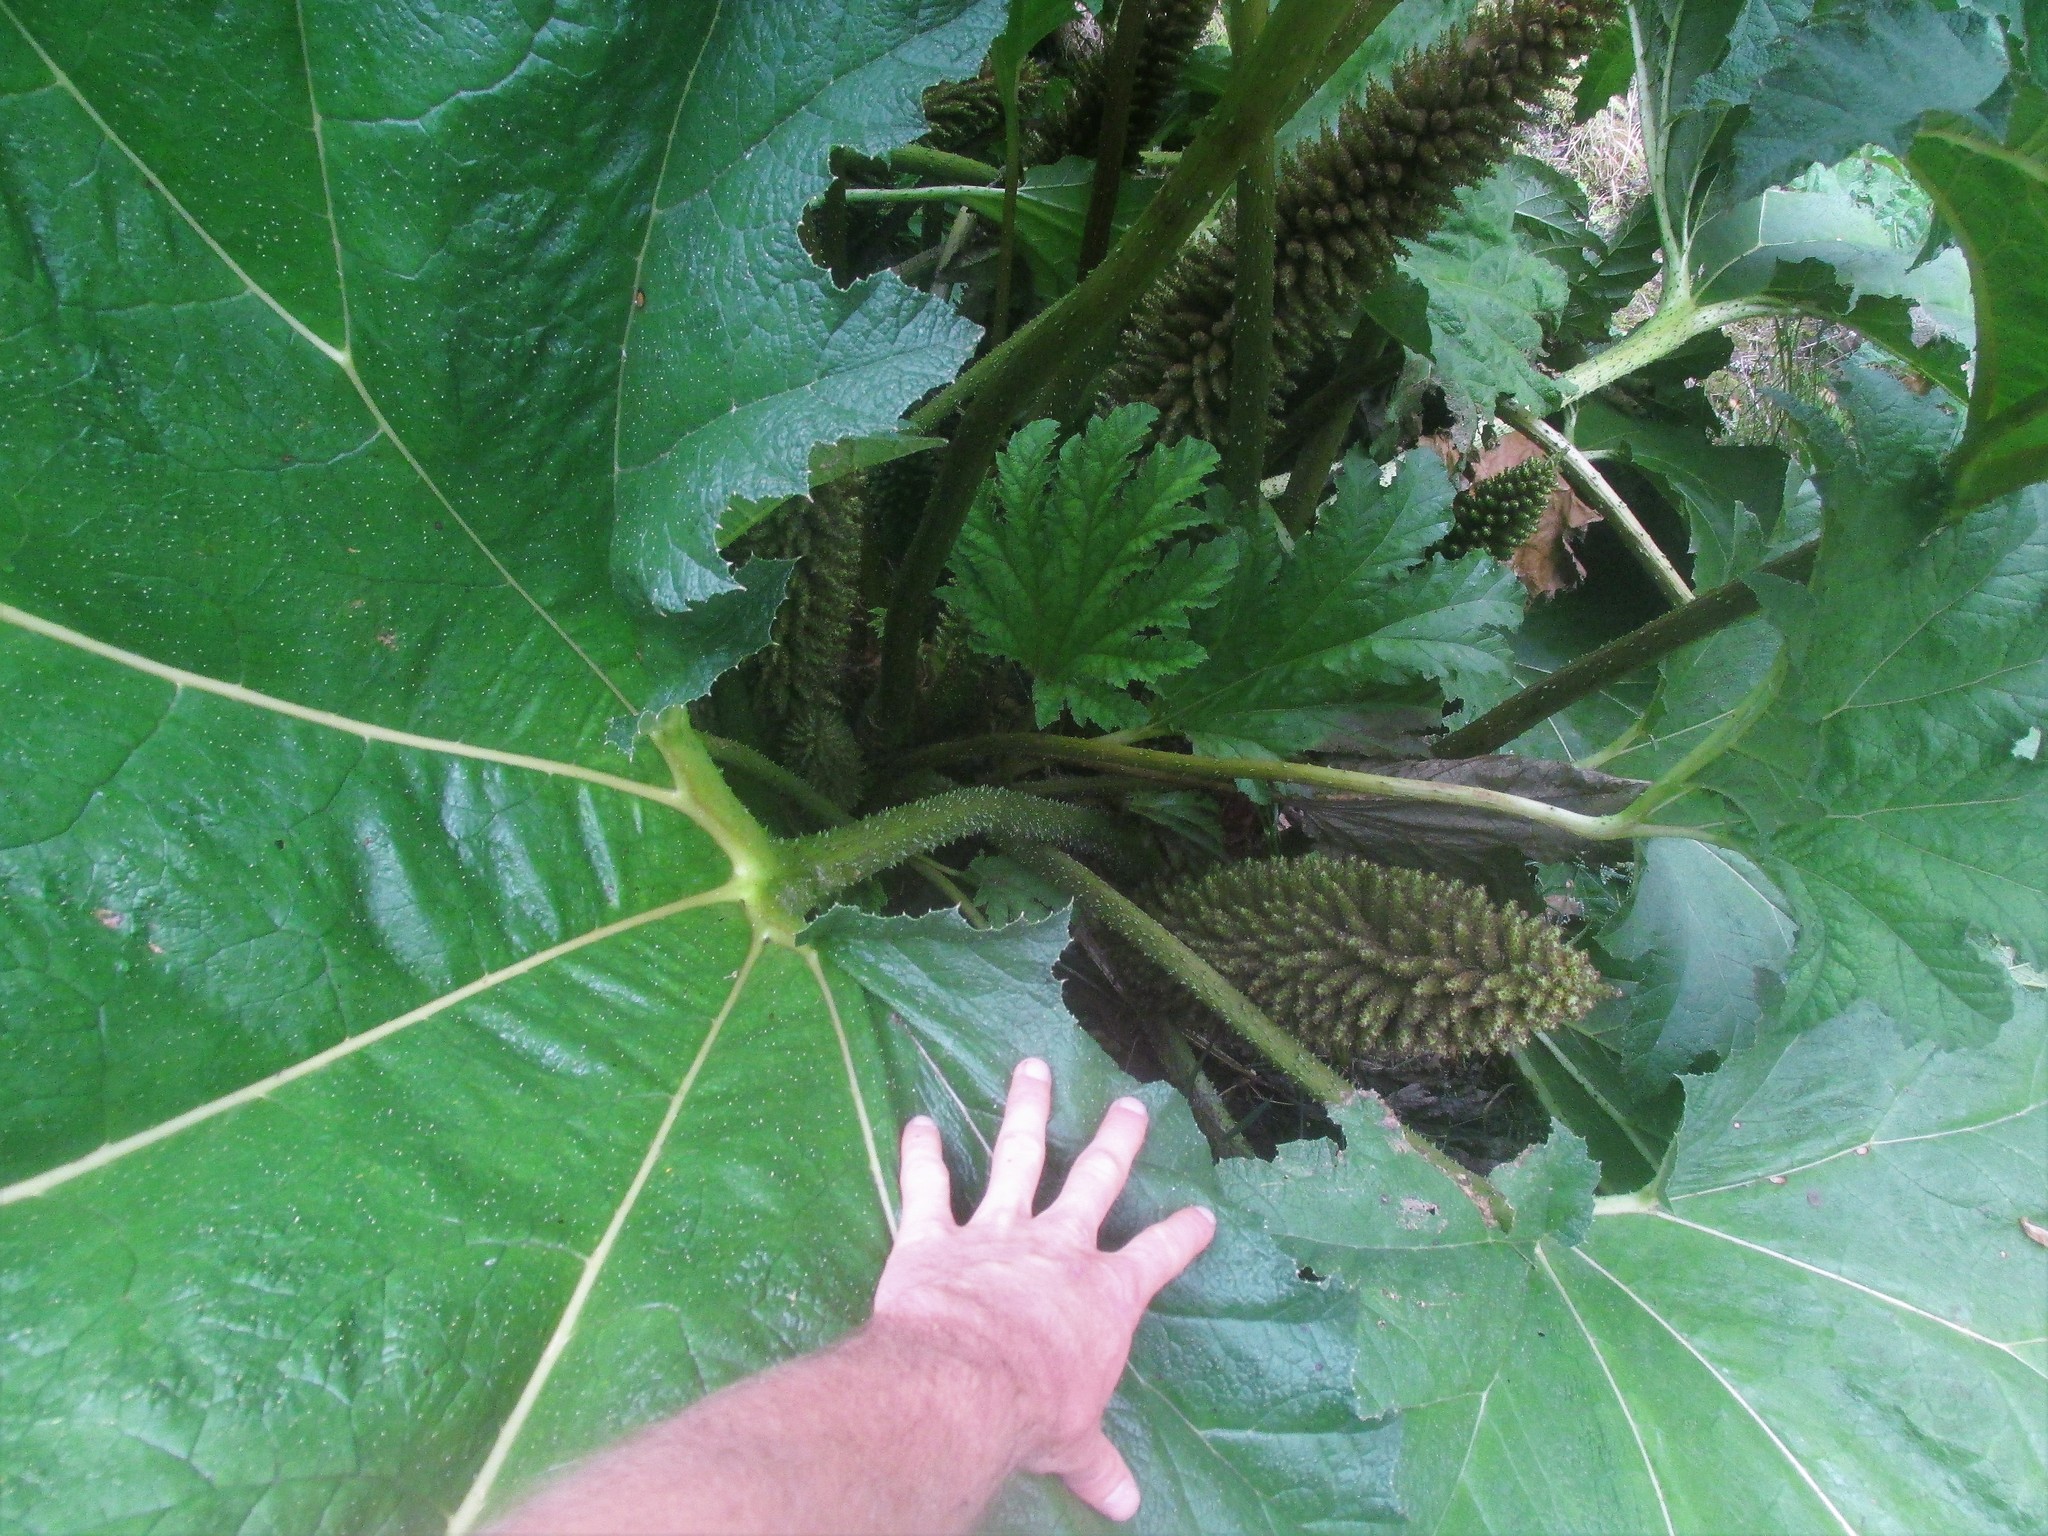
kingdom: Plantae
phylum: Tracheophyta
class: Magnoliopsida
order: Gunnerales
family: Gunneraceae
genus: Gunnera
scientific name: Gunnera tinctoria
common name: Giant-rhubarb
